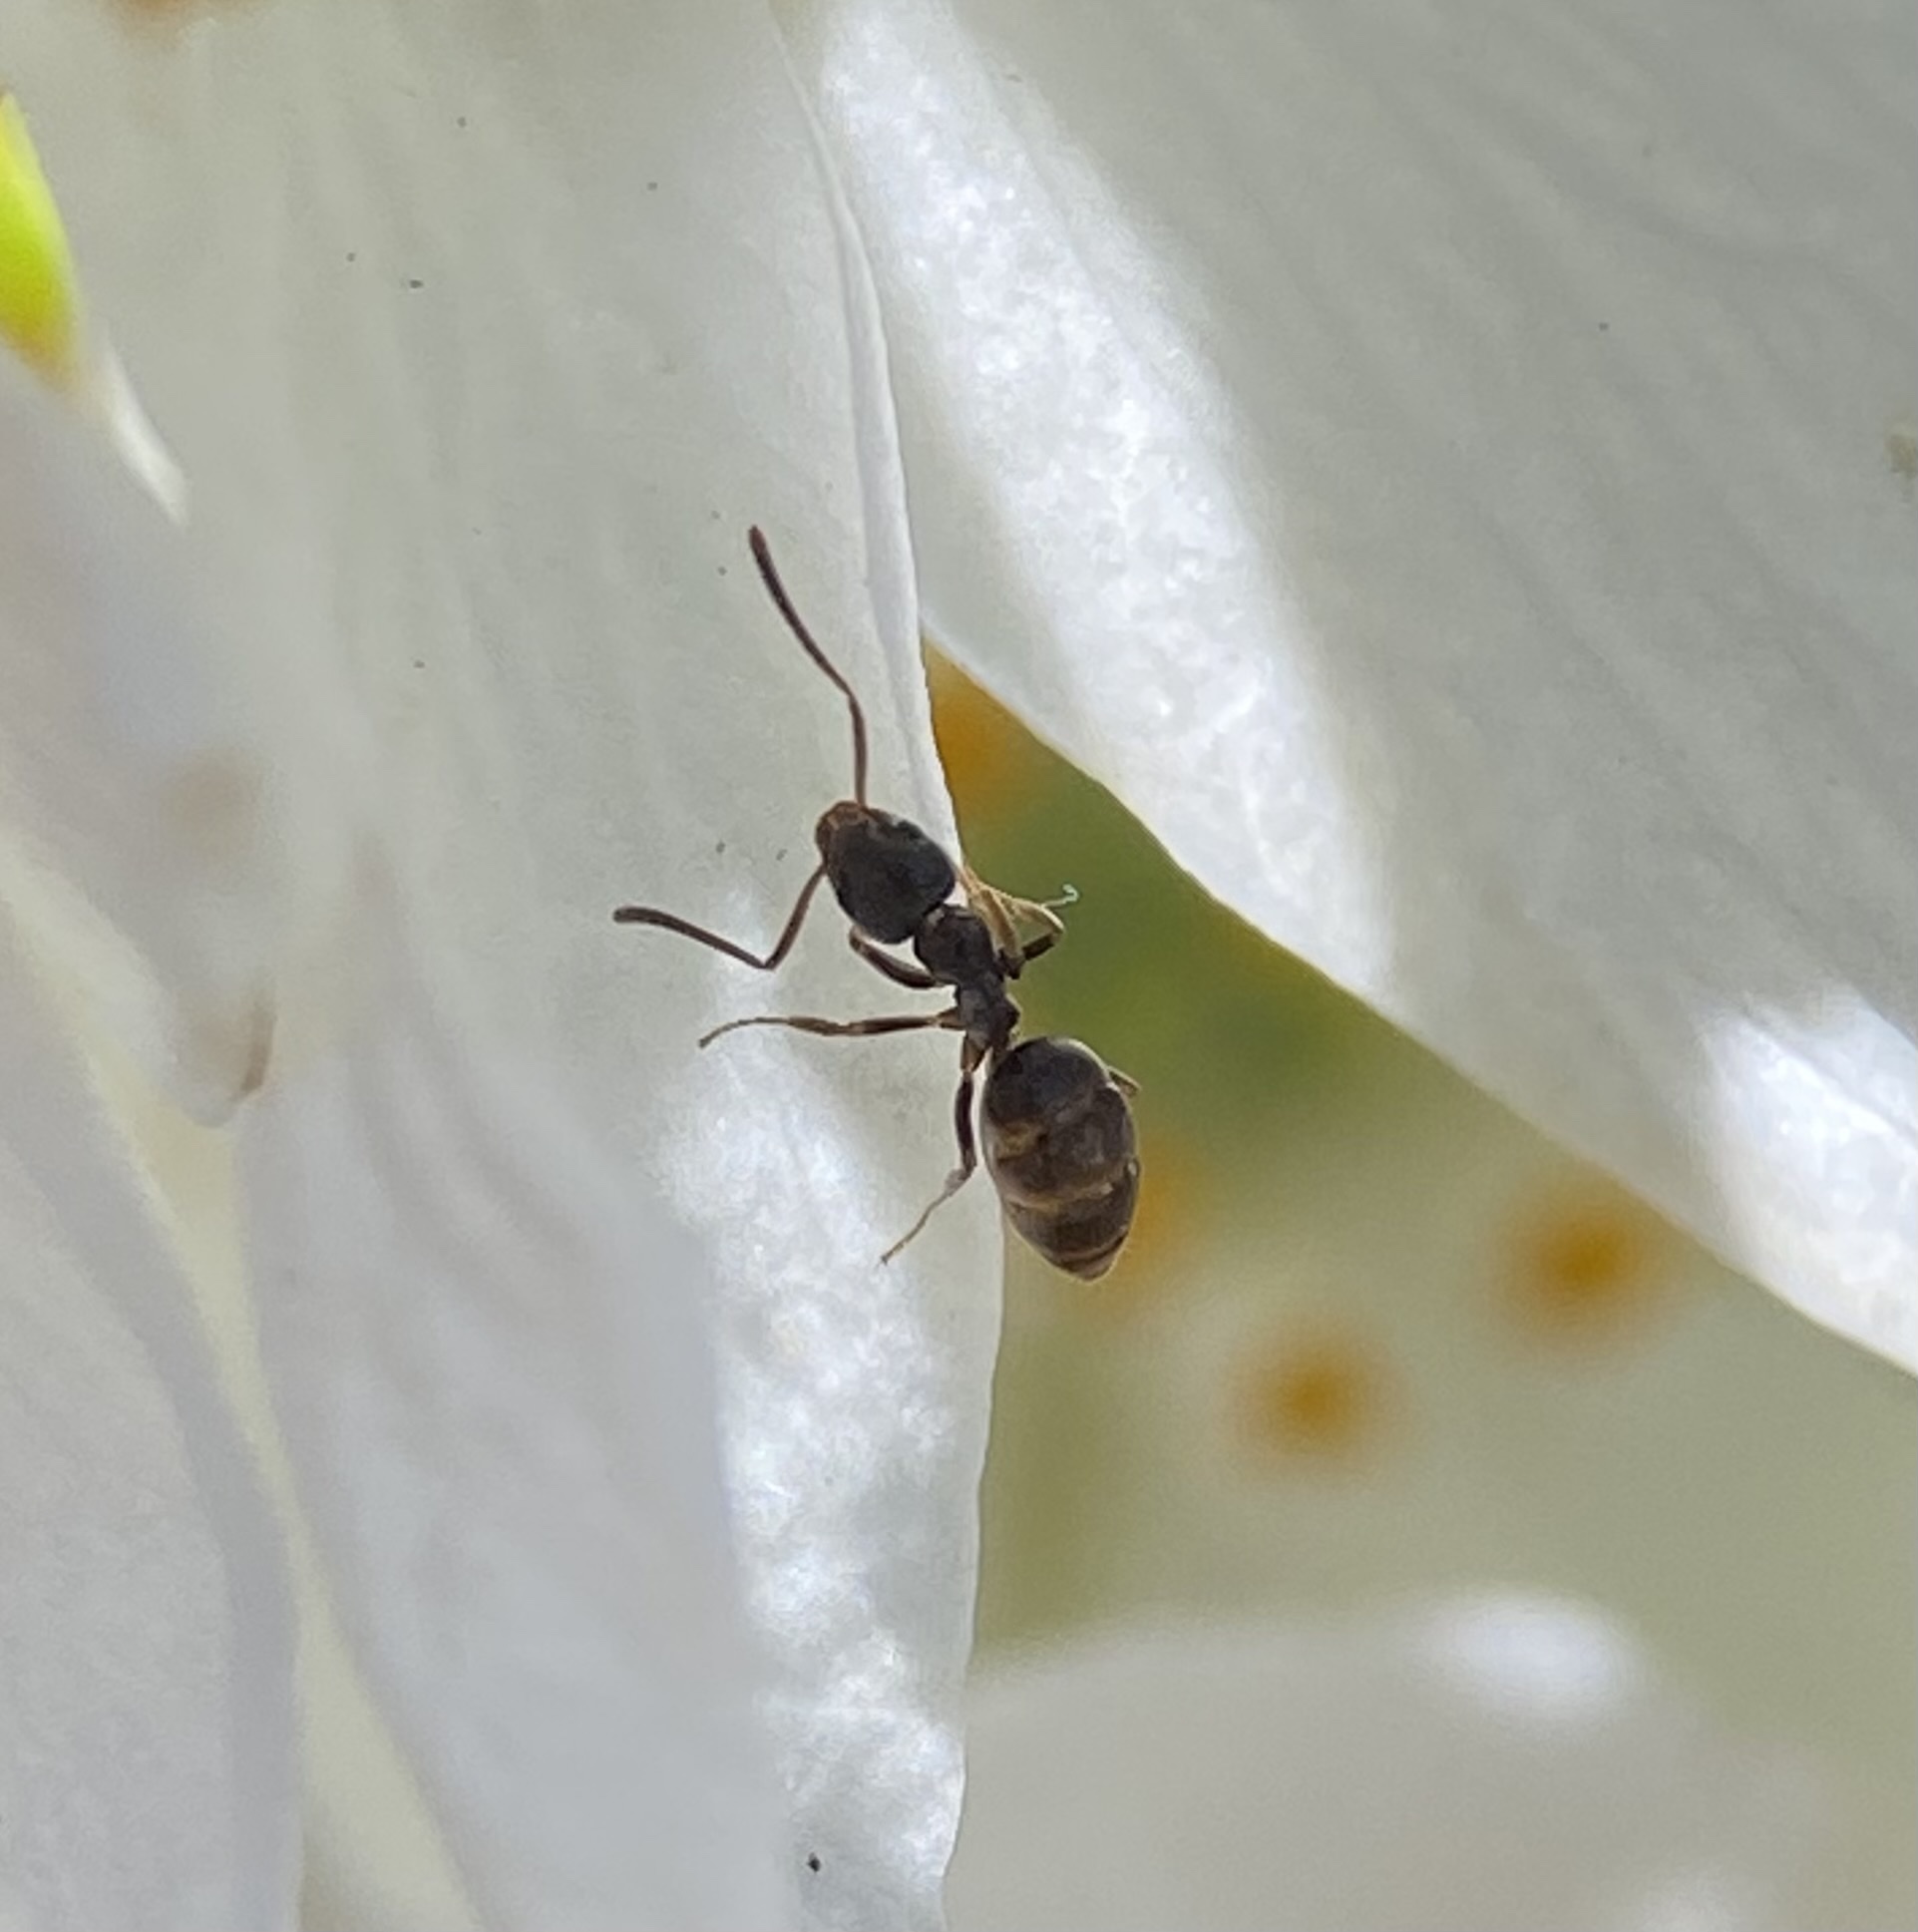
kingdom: Animalia
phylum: Arthropoda
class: Insecta
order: Hymenoptera
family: Formicidae
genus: Tapinoma
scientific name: Tapinoma sessile
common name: Odorous house ant
